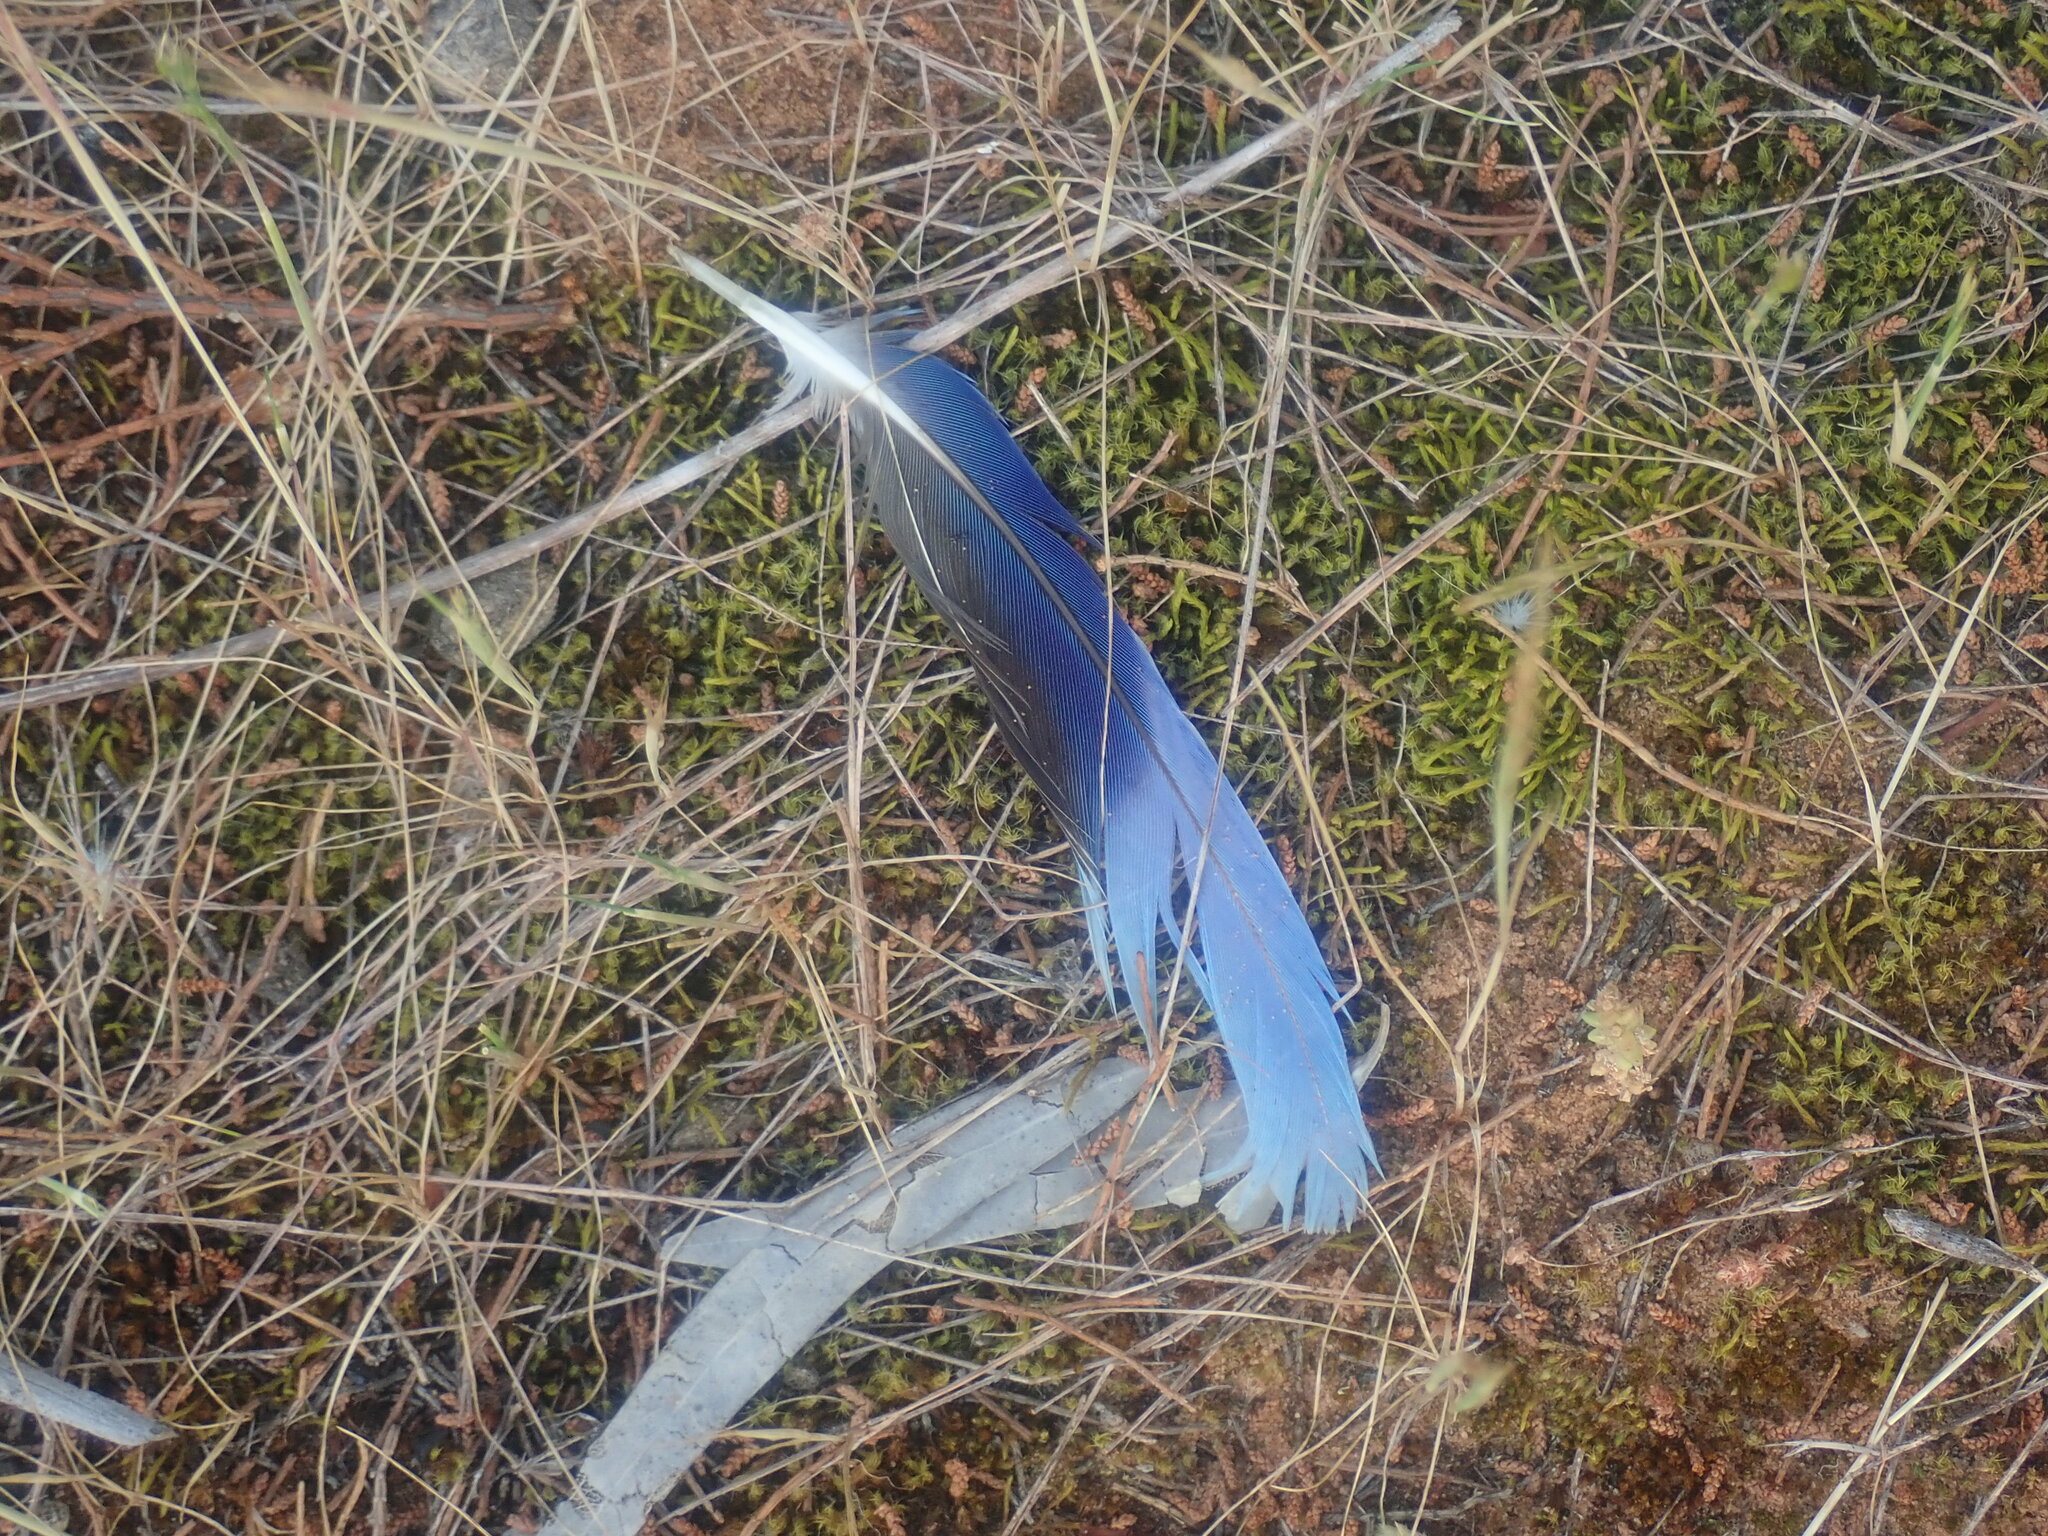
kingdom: Animalia
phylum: Chordata
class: Aves
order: Psittaciformes
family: Psittacidae
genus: Platycercus
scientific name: Platycercus elegans
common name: Crimson rosella
